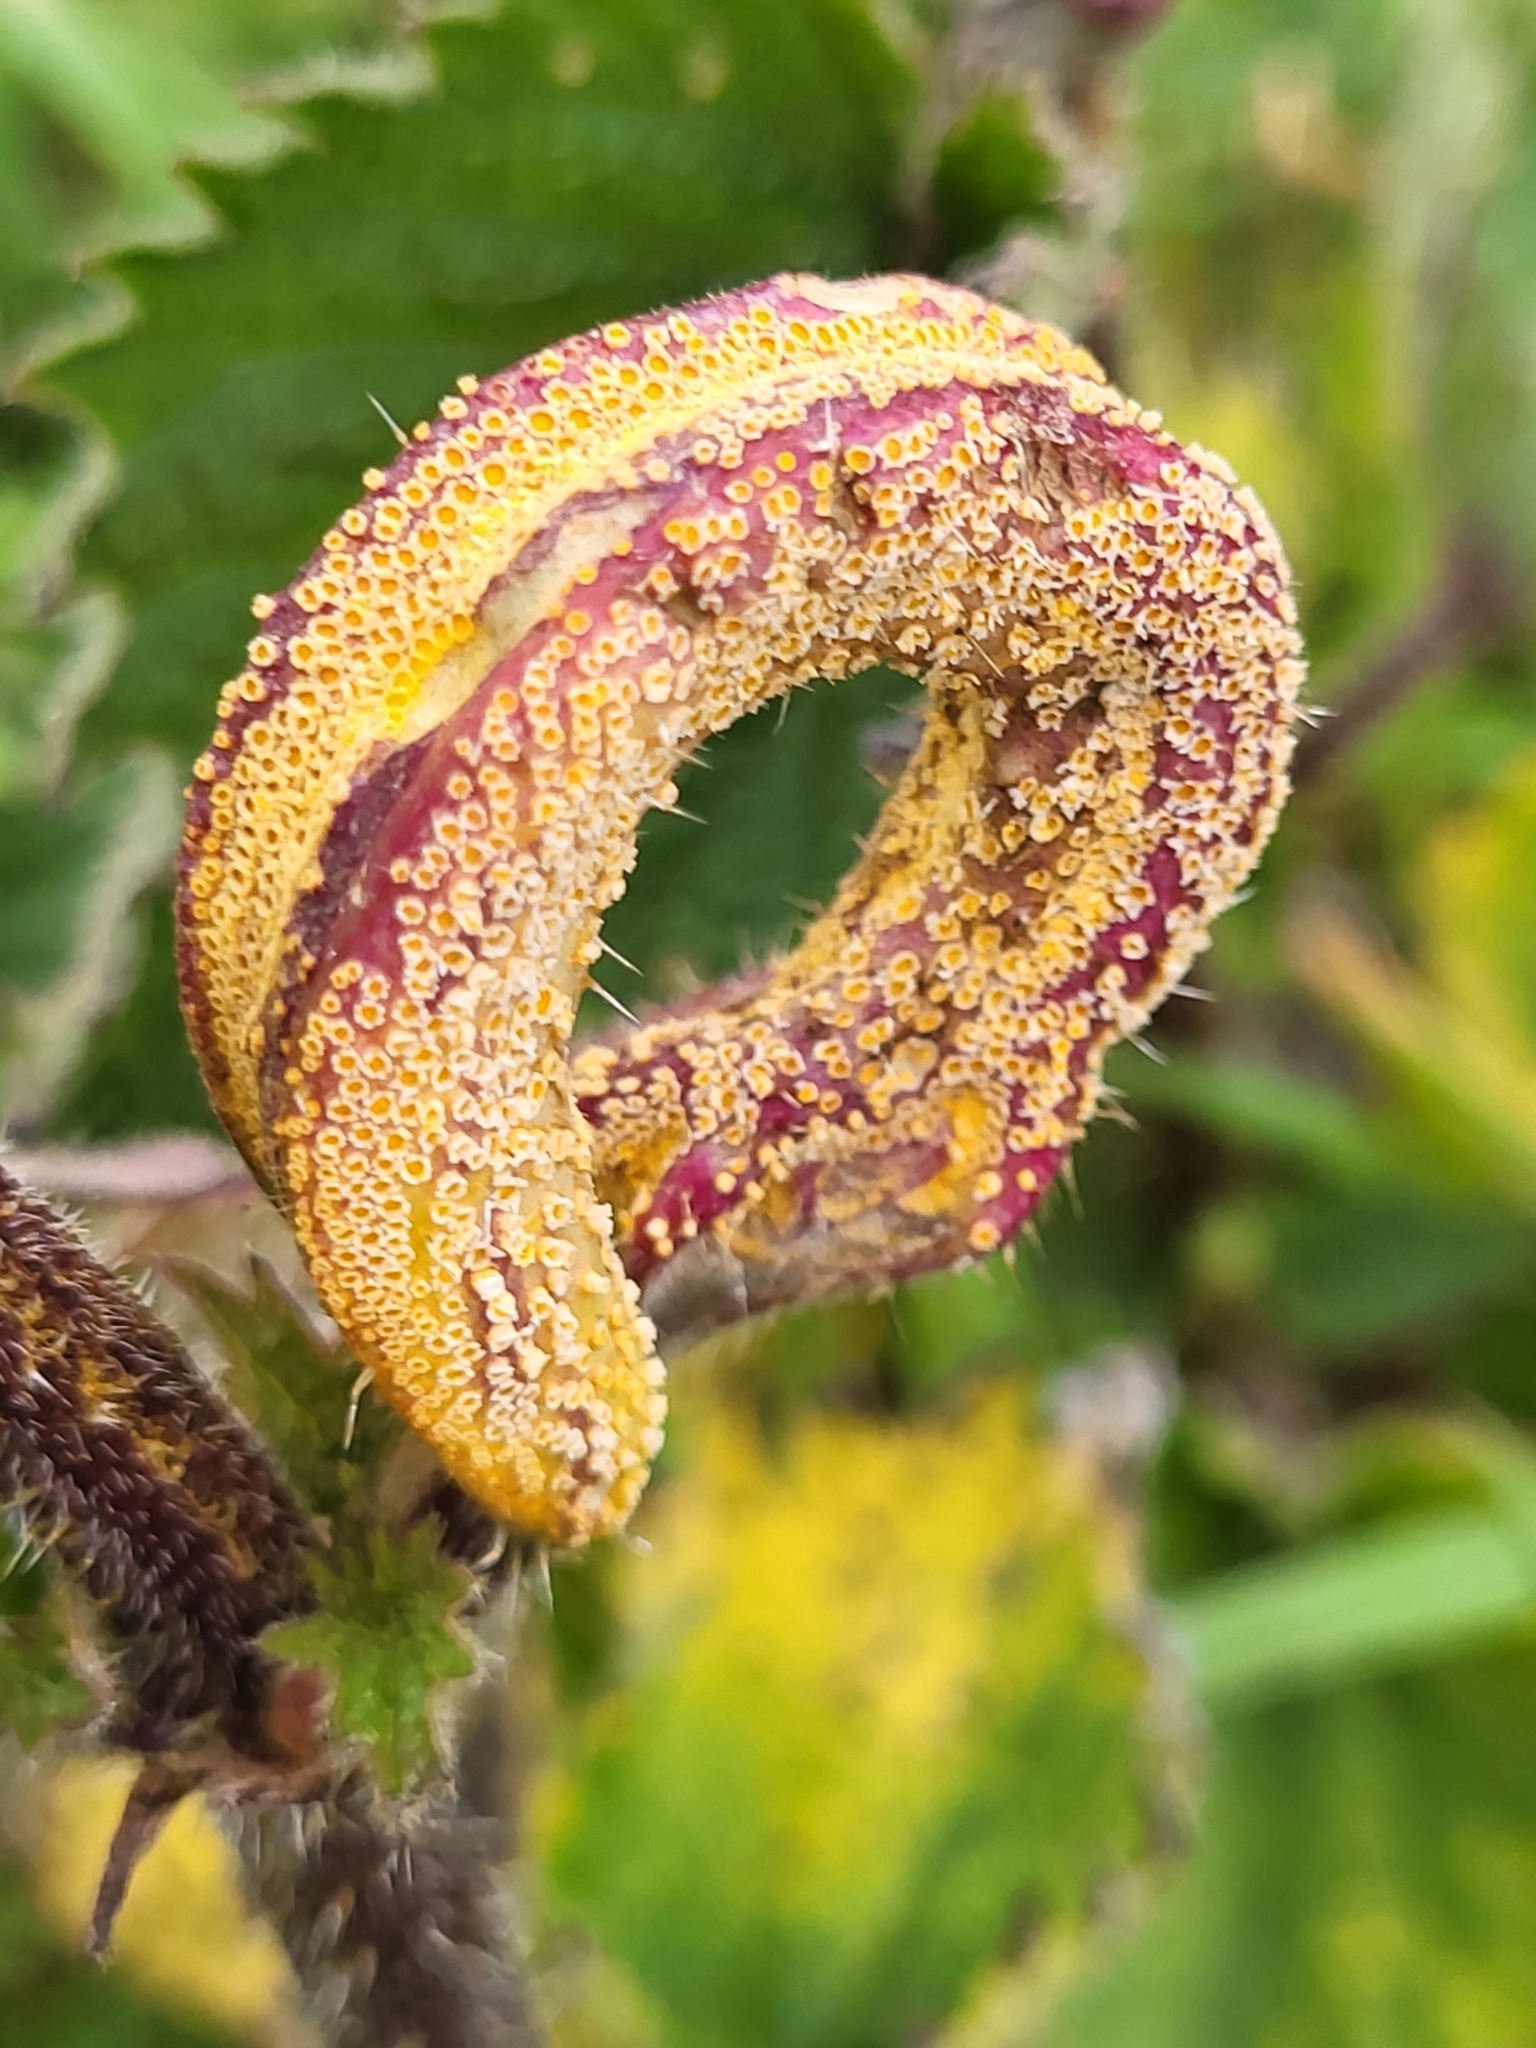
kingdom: Fungi
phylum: Basidiomycota
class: Pucciniomycetes
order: Pucciniales
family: Pucciniaceae
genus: Puccinia
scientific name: Puccinia urticata
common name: Nettle clustercup rust fungus
